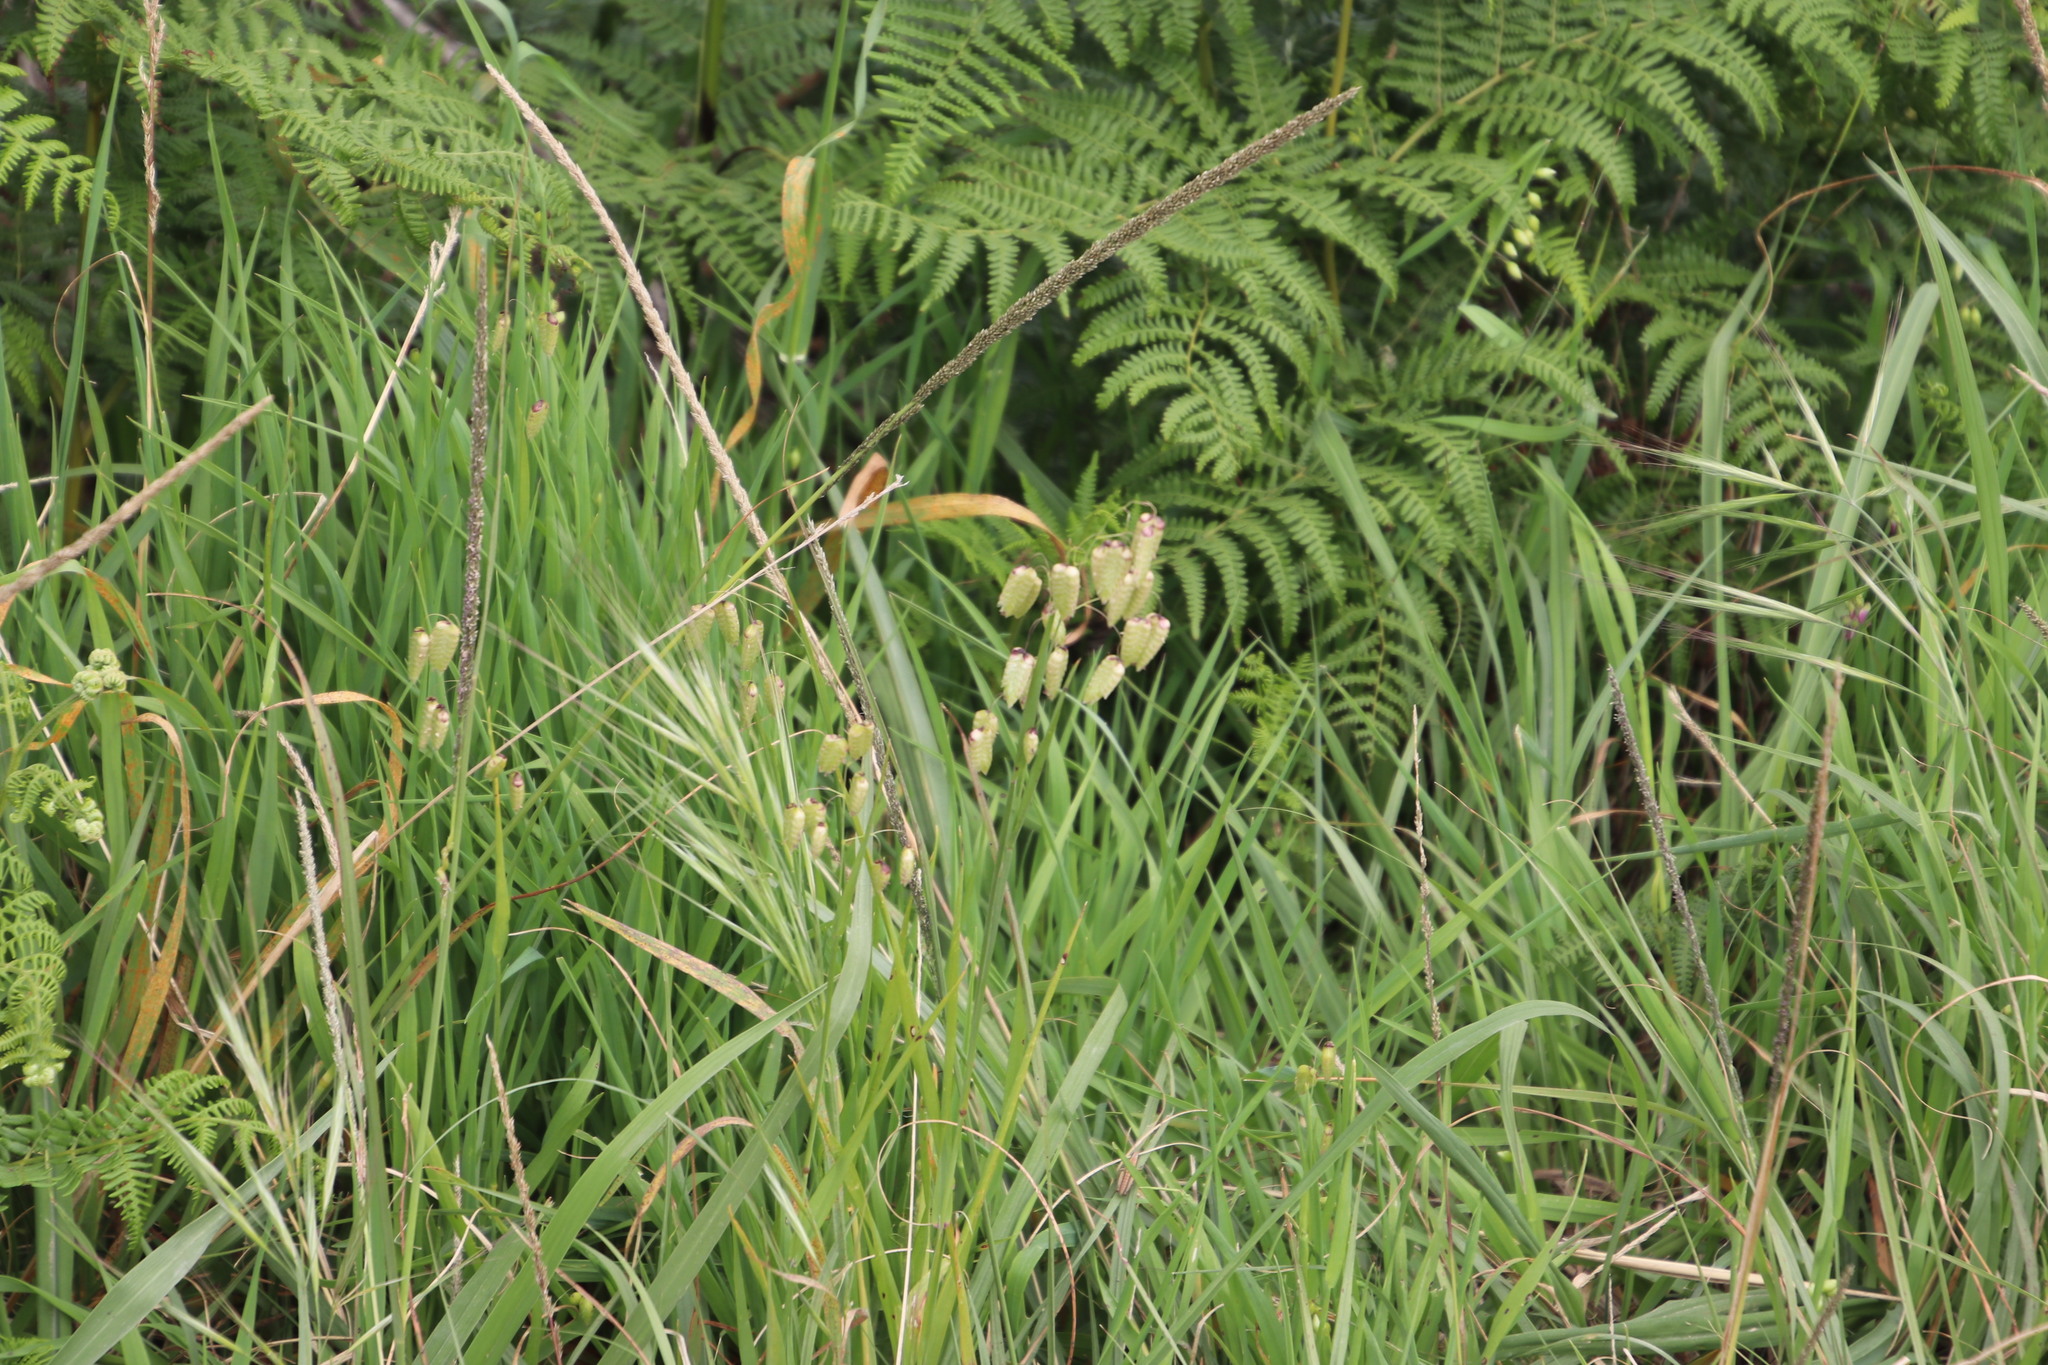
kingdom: Plantae
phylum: Tracheophyta
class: Liliopsida
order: Poales
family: Poaceae
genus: Briza
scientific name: Briza maxima
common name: Big quakinggrass
